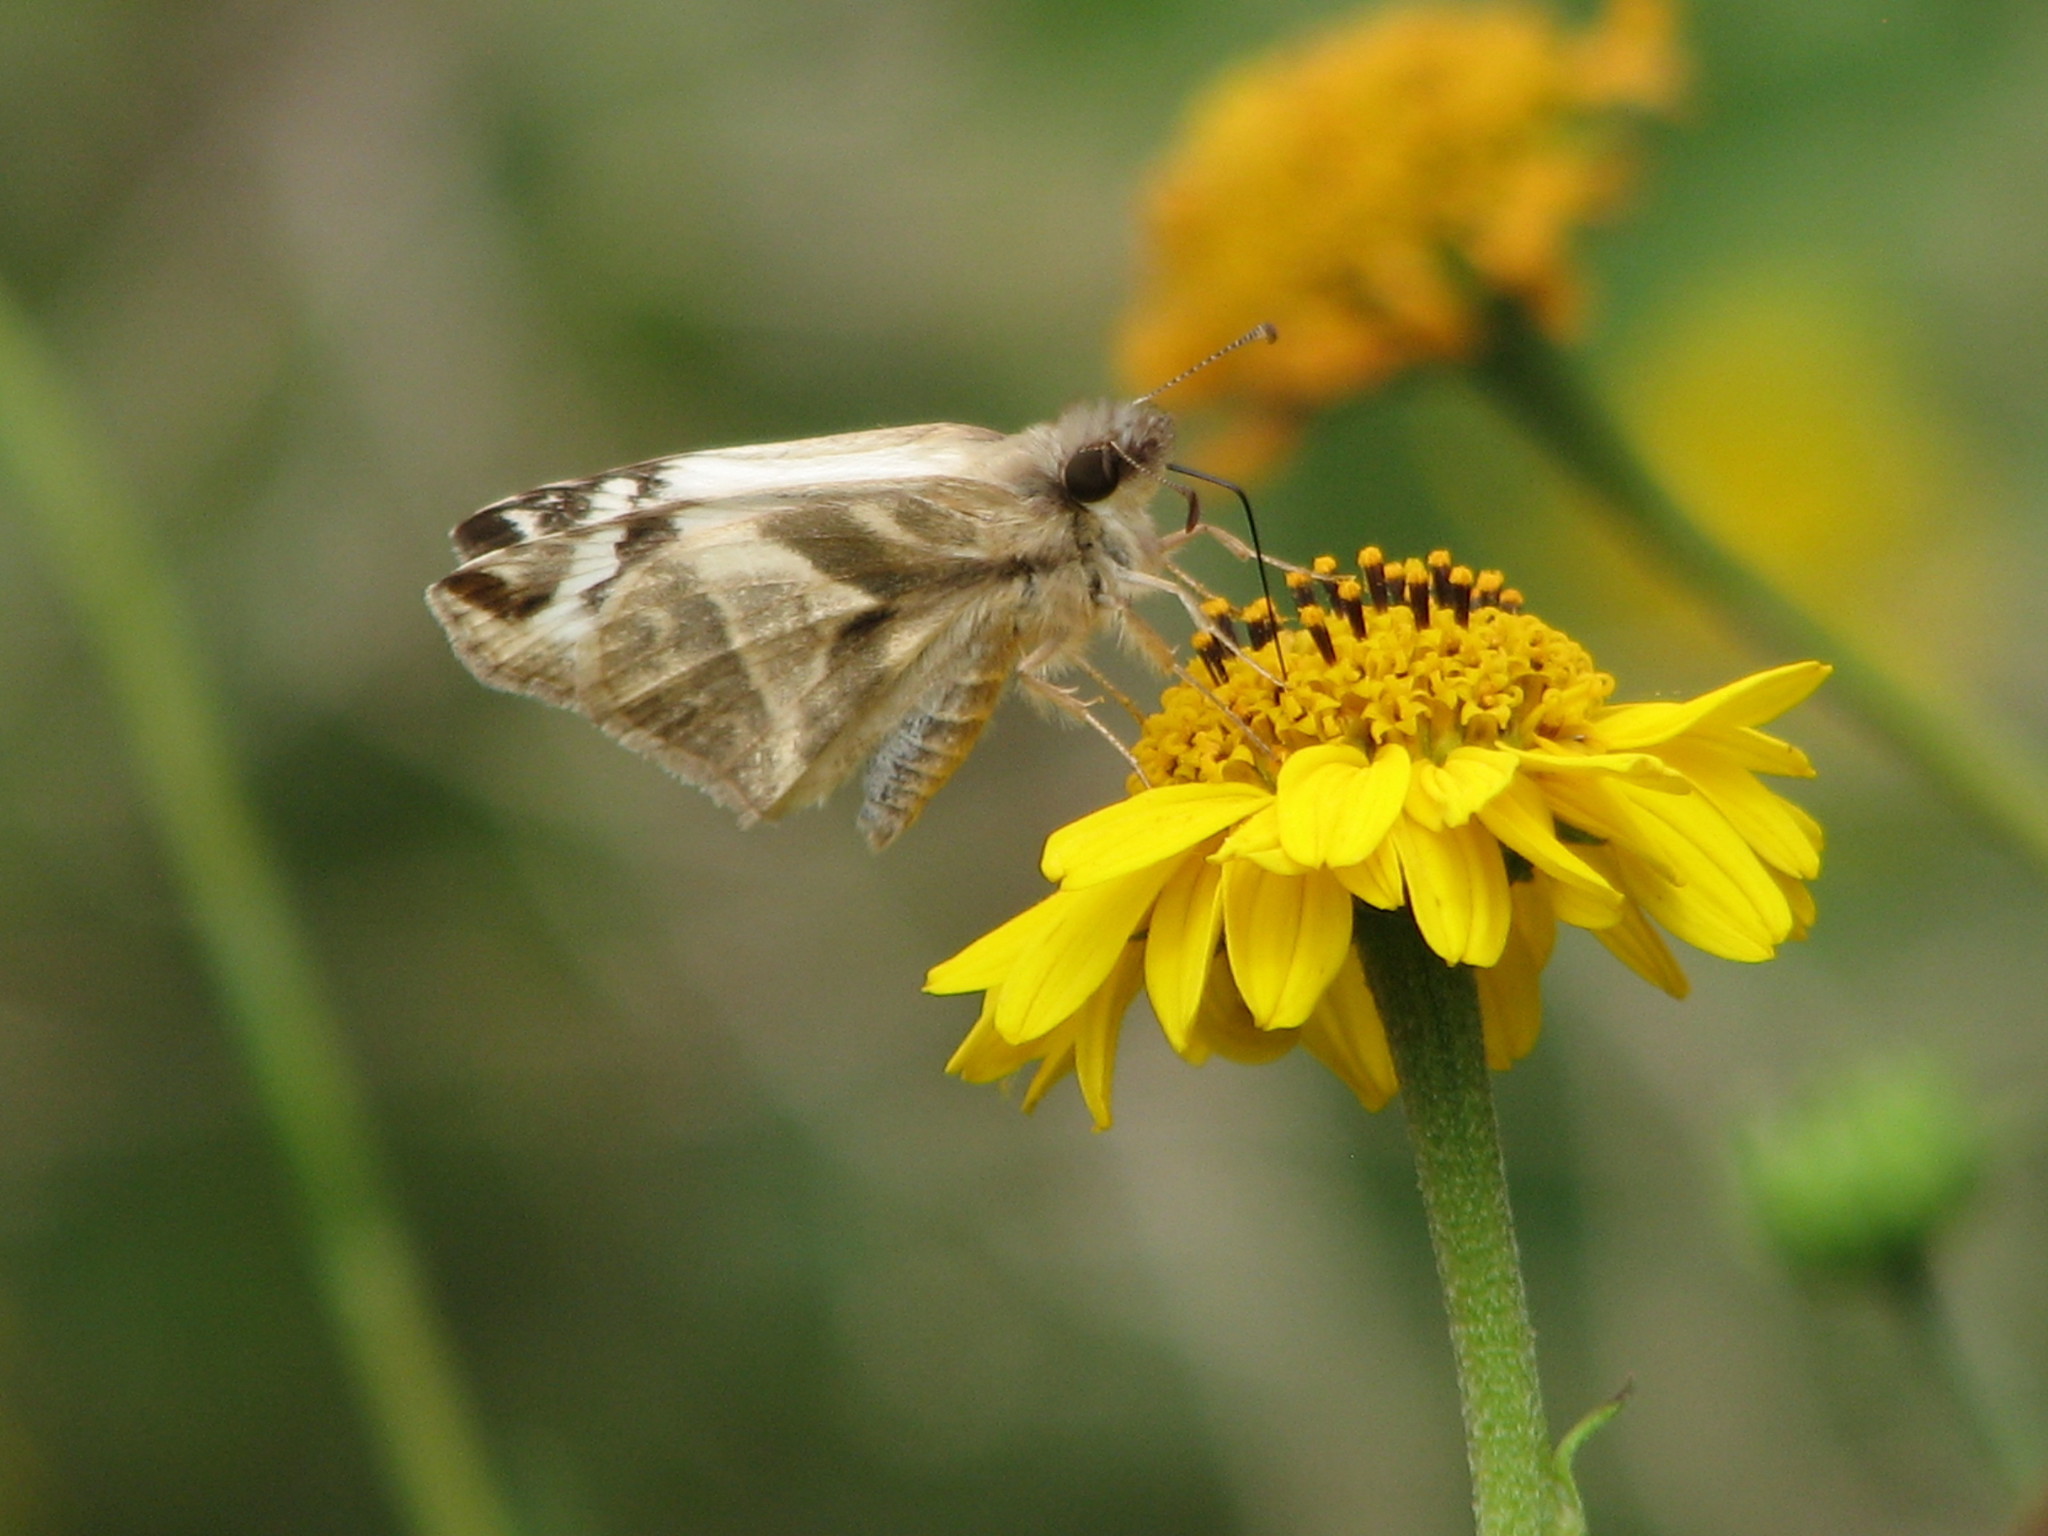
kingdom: Animalia
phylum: Arthropoda
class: Insecta
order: Lepidoptera
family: Hesperiidae
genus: Heliopetes
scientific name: Heliopetes laviana
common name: Laviana white-skipper
